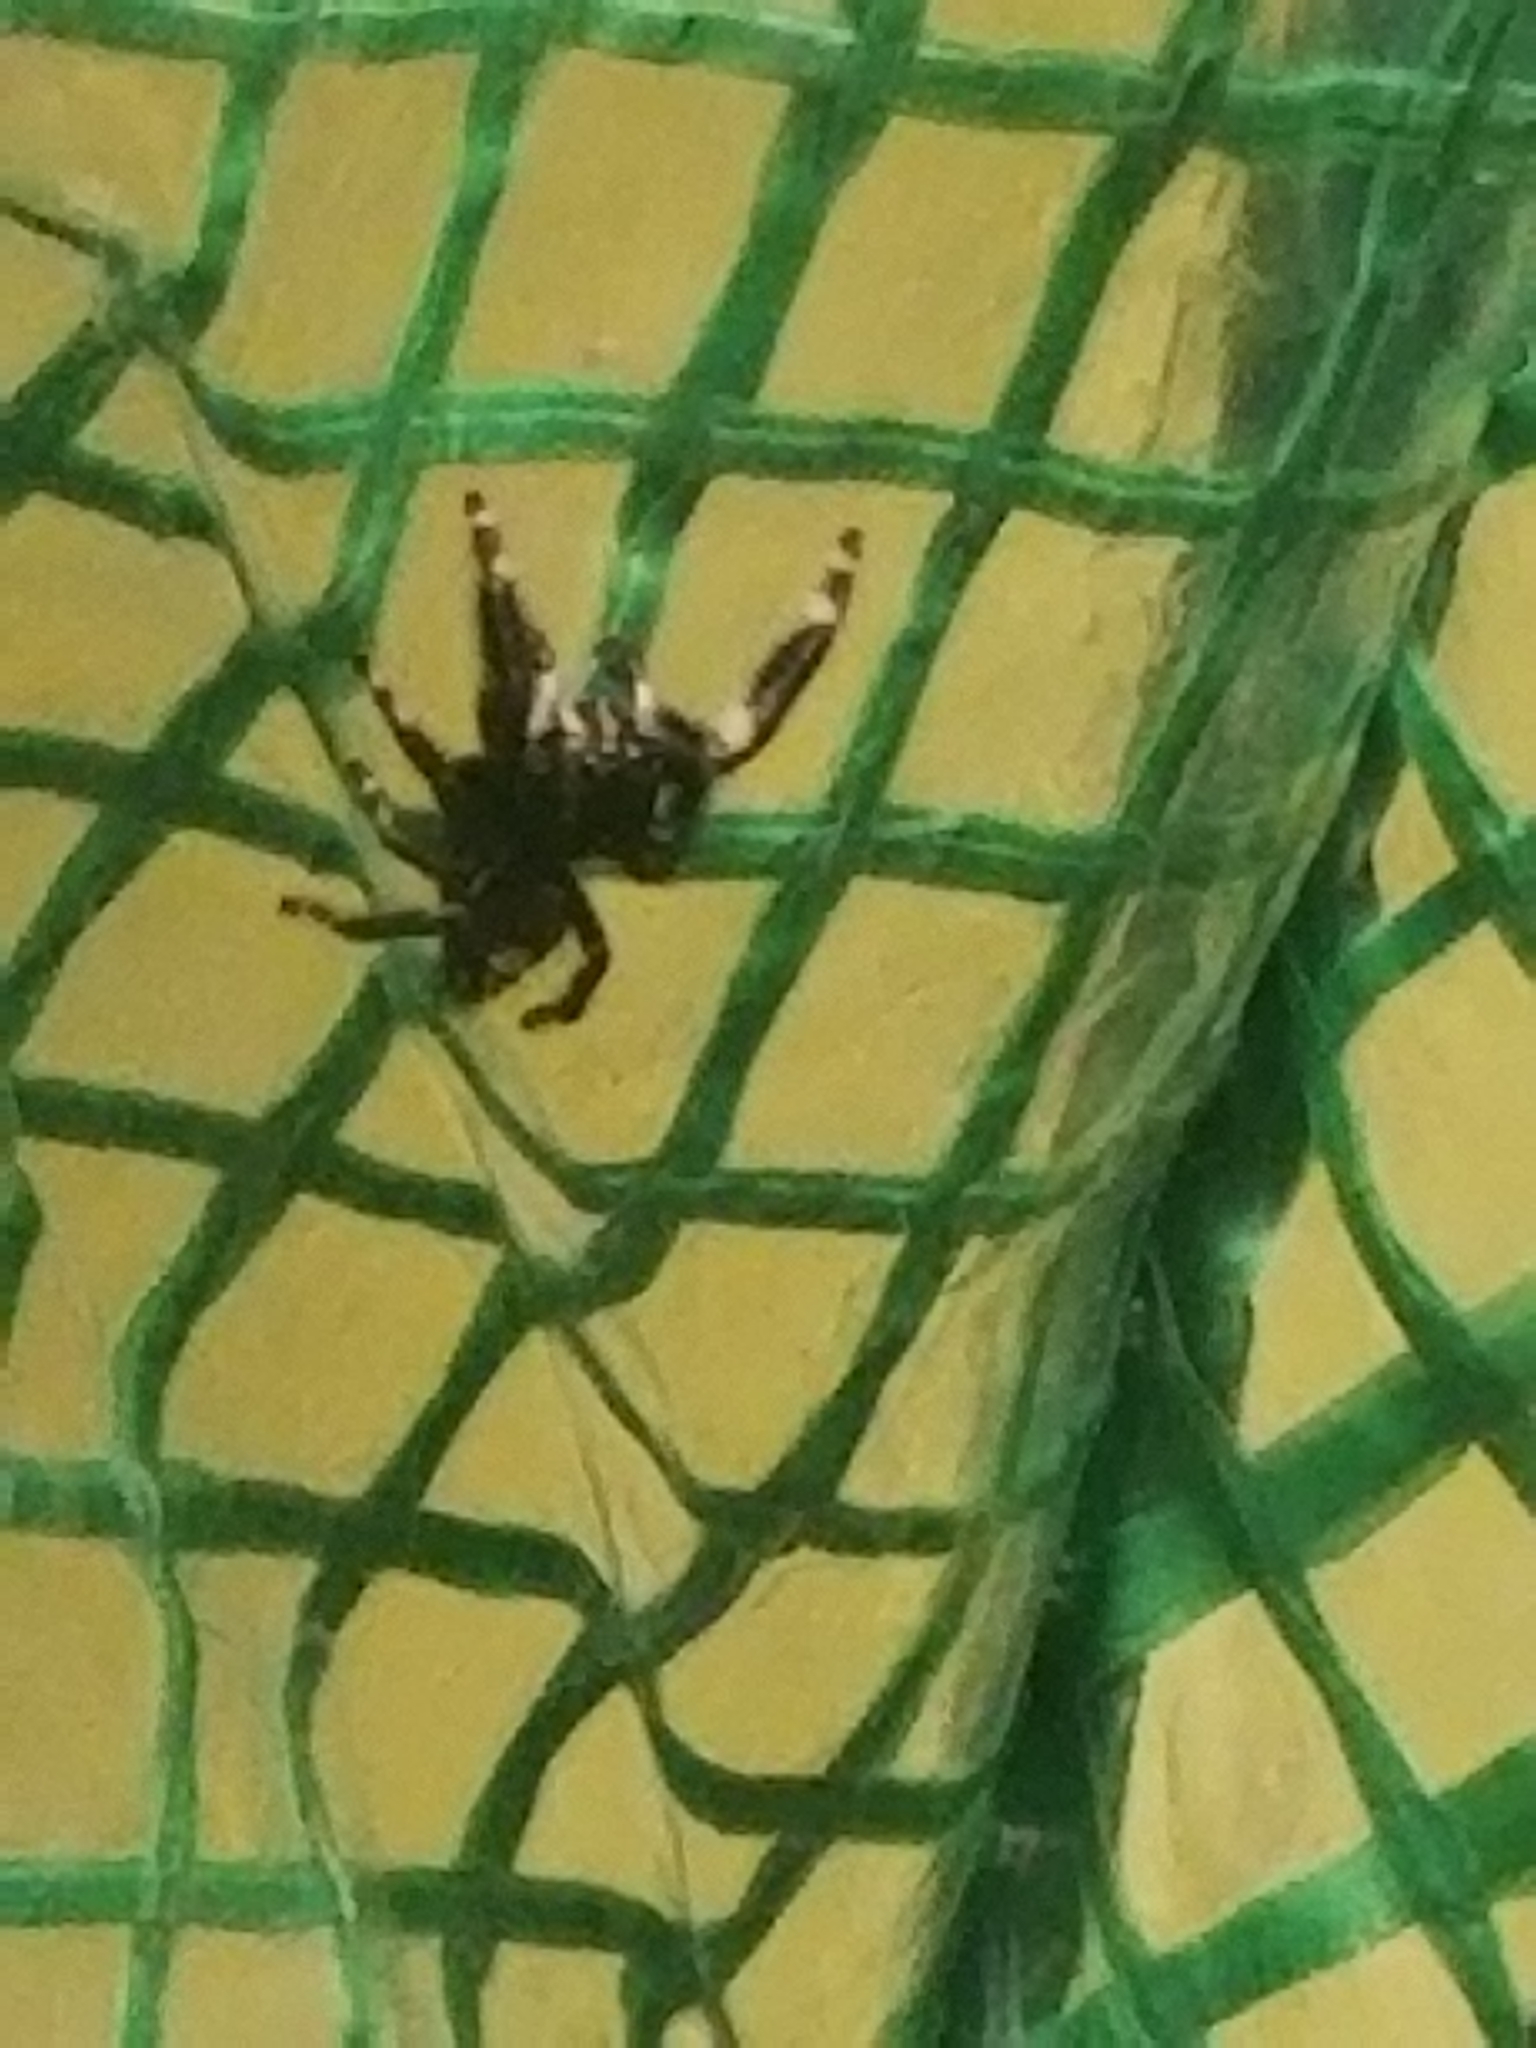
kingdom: Animalia
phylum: Arthropoda
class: Arachnida
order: Araneae
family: Salticidae
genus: Phidippus
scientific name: Phidippus audax
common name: Bold jumper
